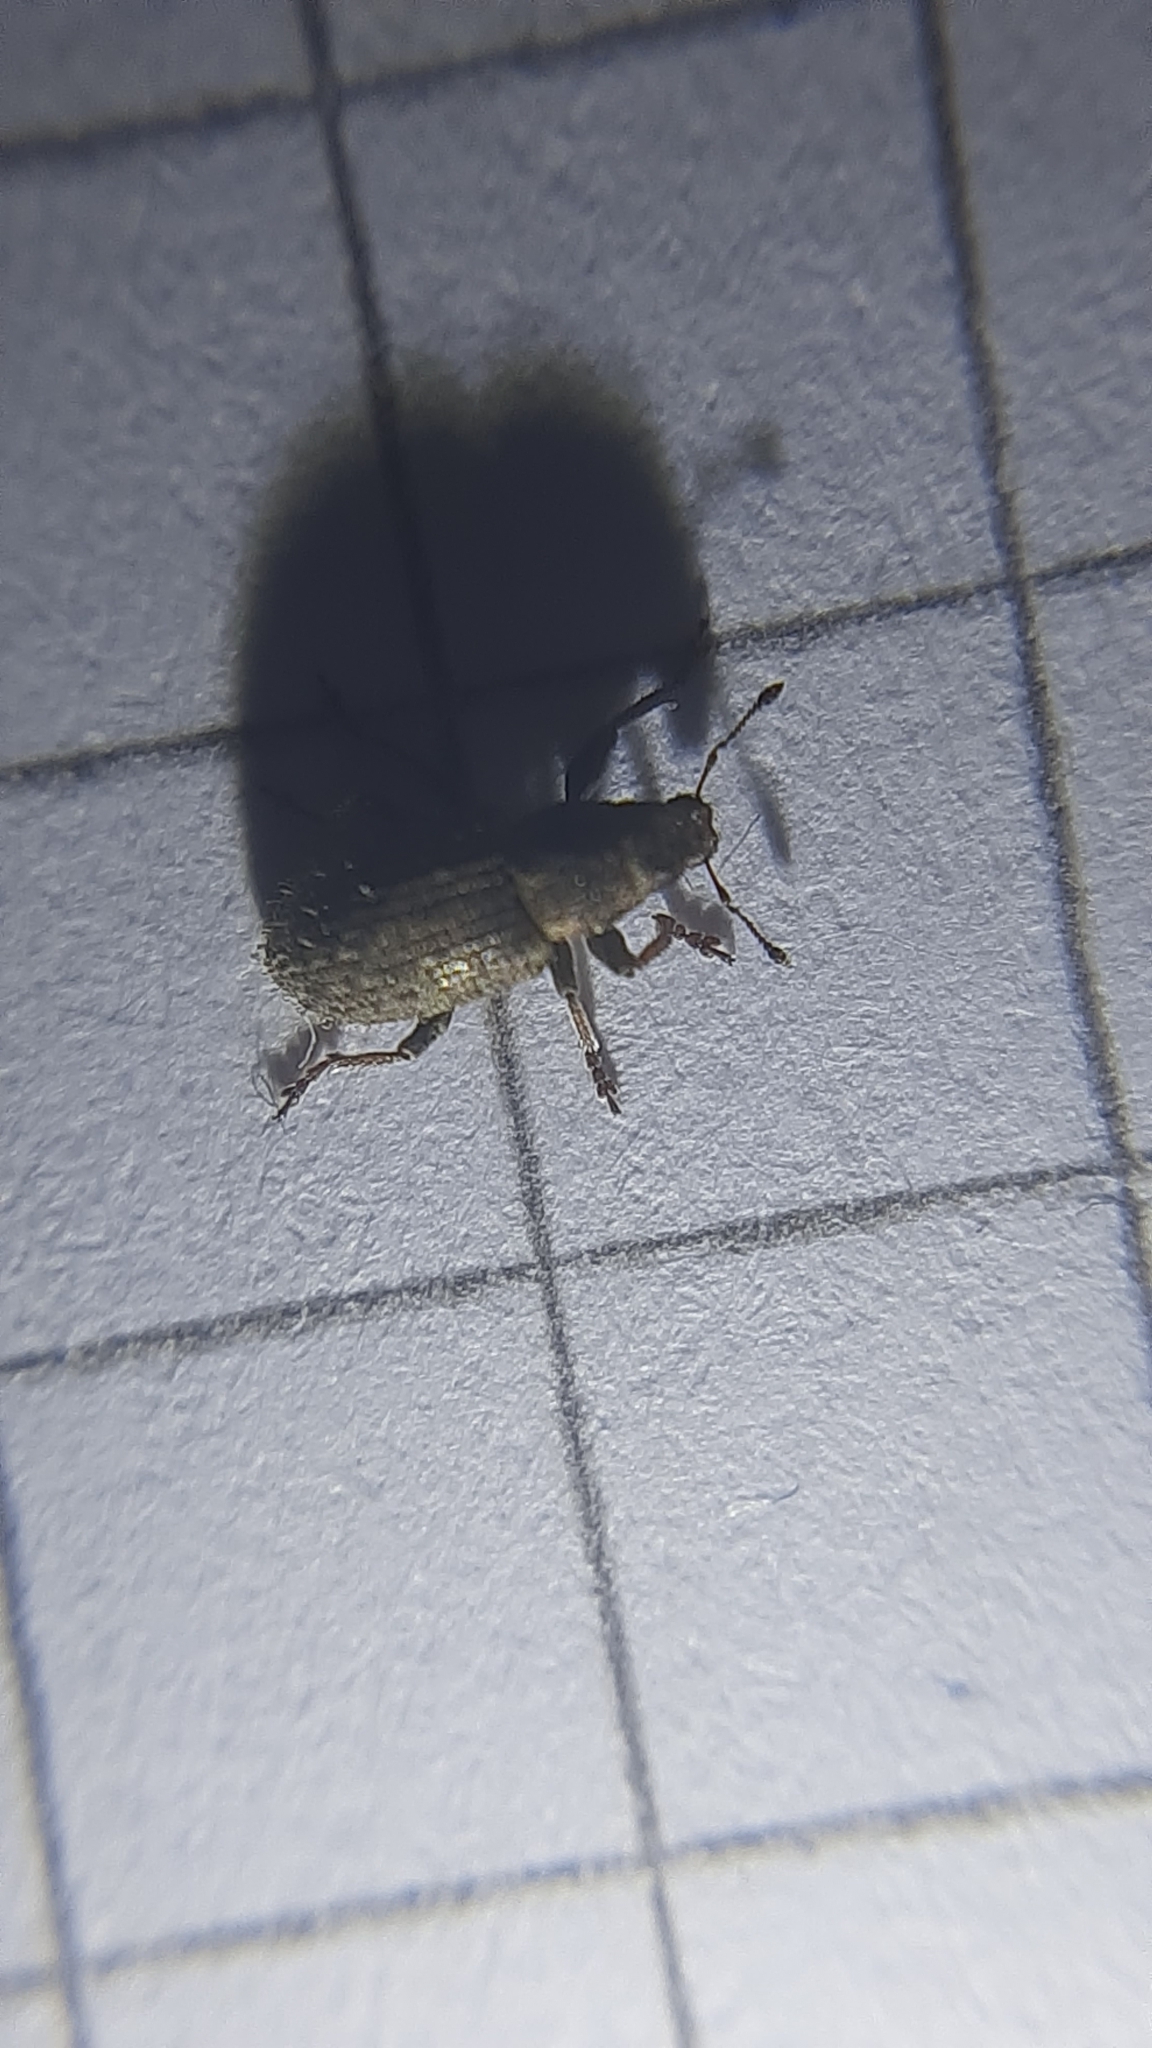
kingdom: Animalia
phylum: Arthropoda
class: Insecta
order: Coleoptera
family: Curculionidae
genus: Sitona
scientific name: Sitona hispidulus
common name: Clover weevil
